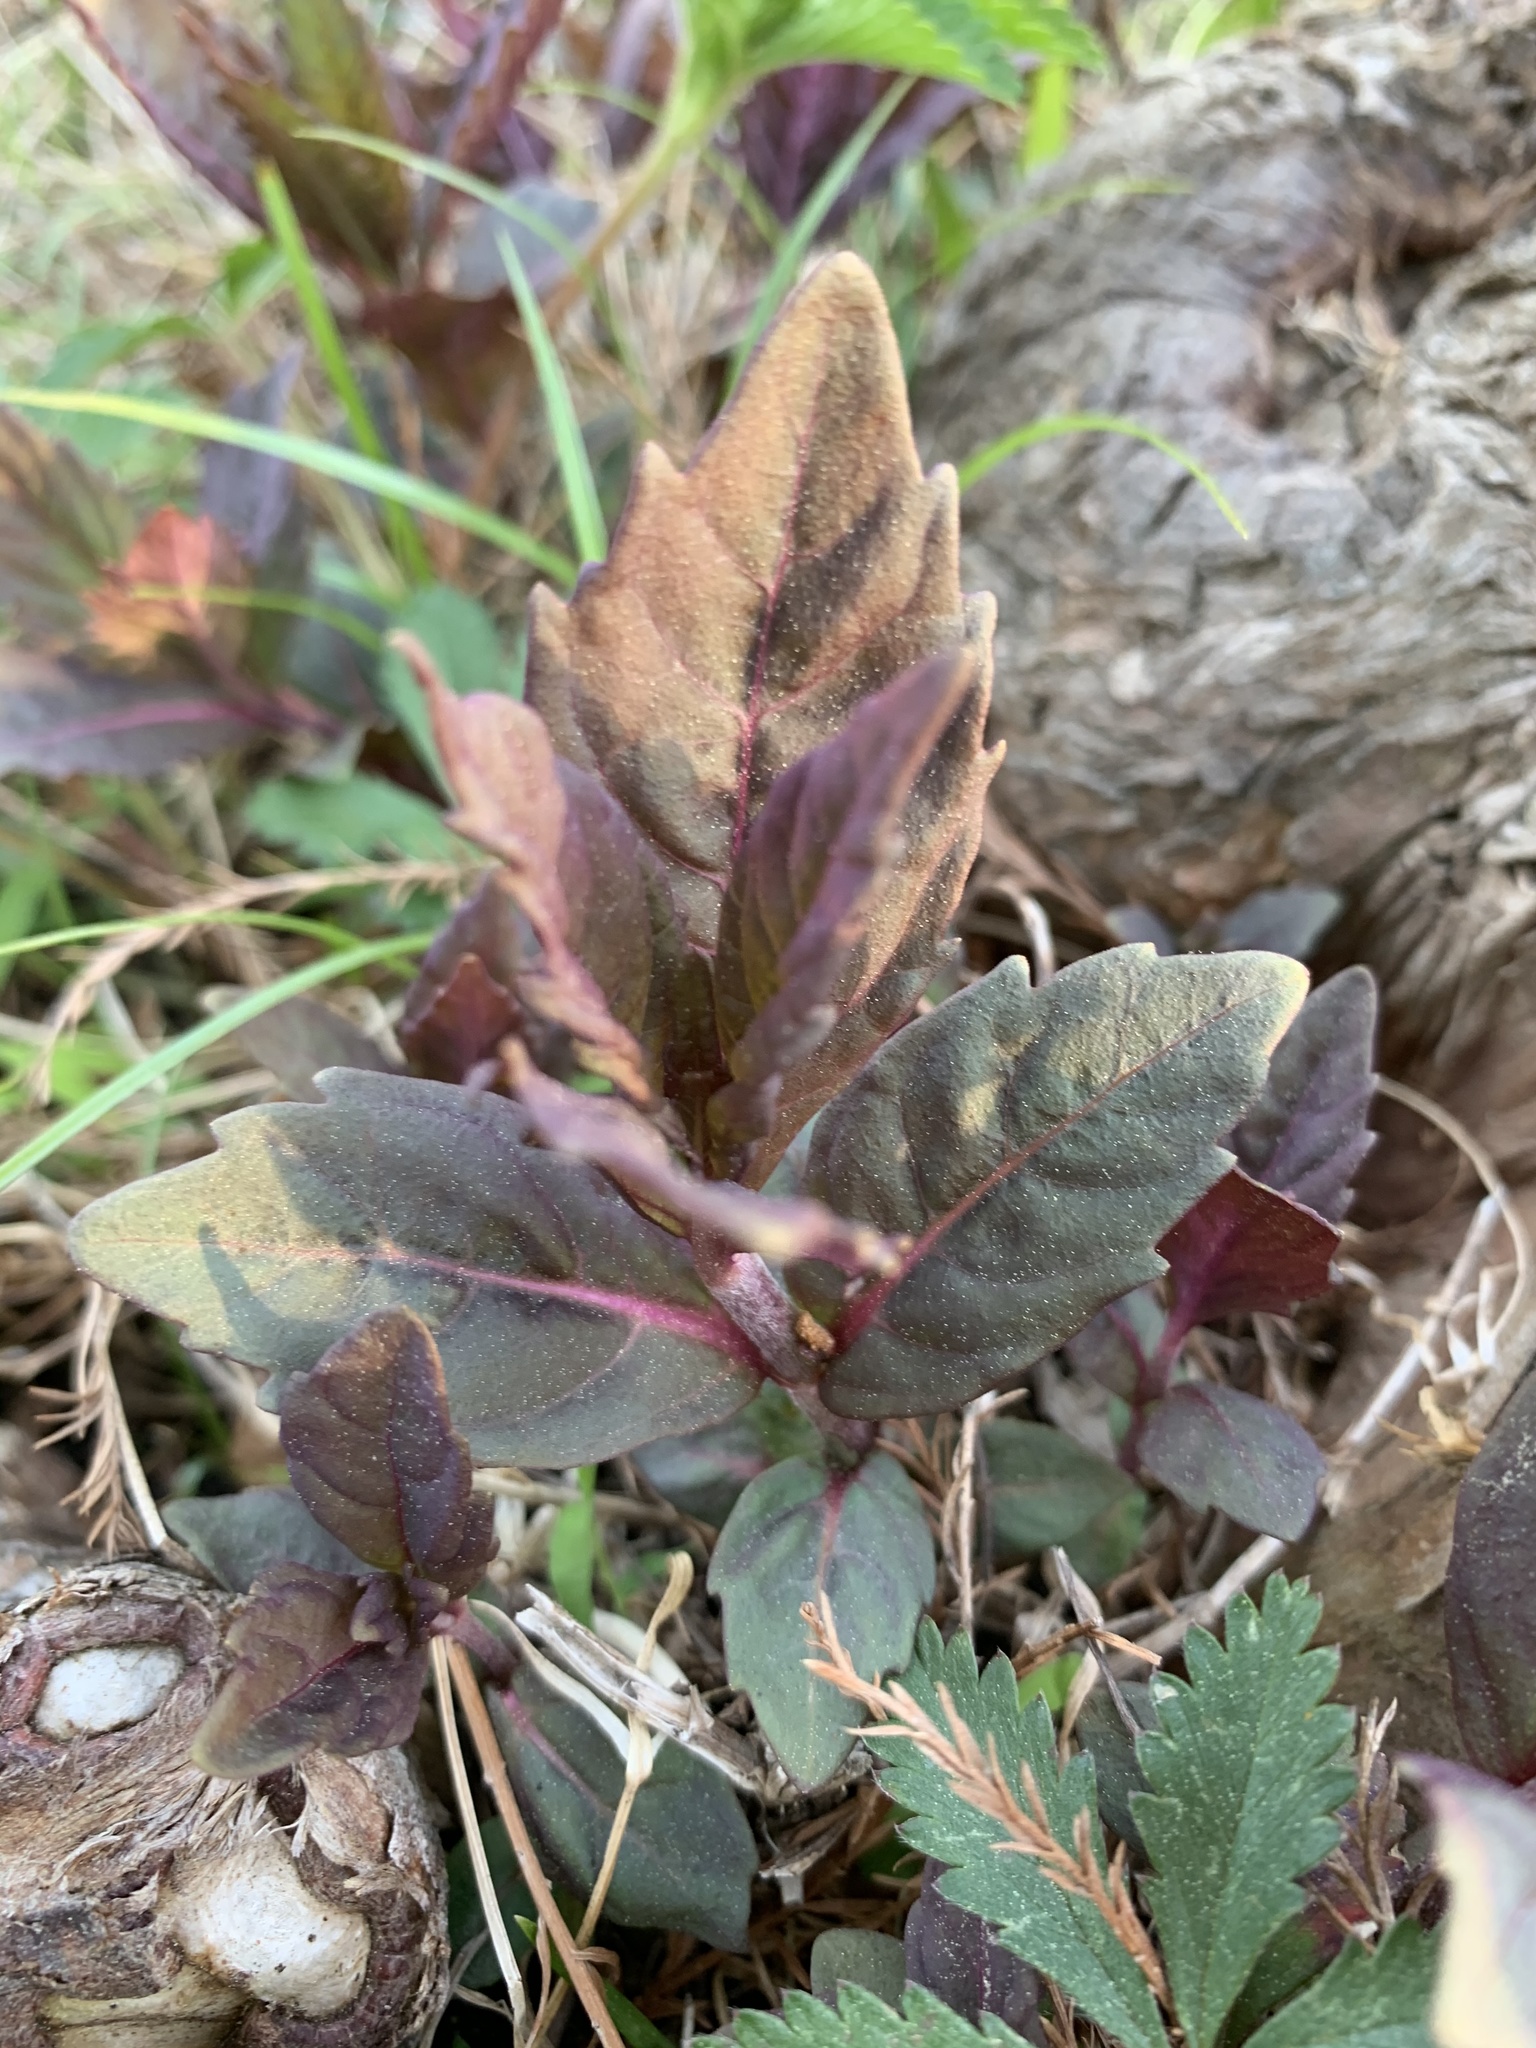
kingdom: Plantae
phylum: Tracheophyta
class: Magnoliopsida
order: Lamiales
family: Lamiaceae
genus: Lycopus
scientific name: Lycopus uniflorus
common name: Northern bugleweed
